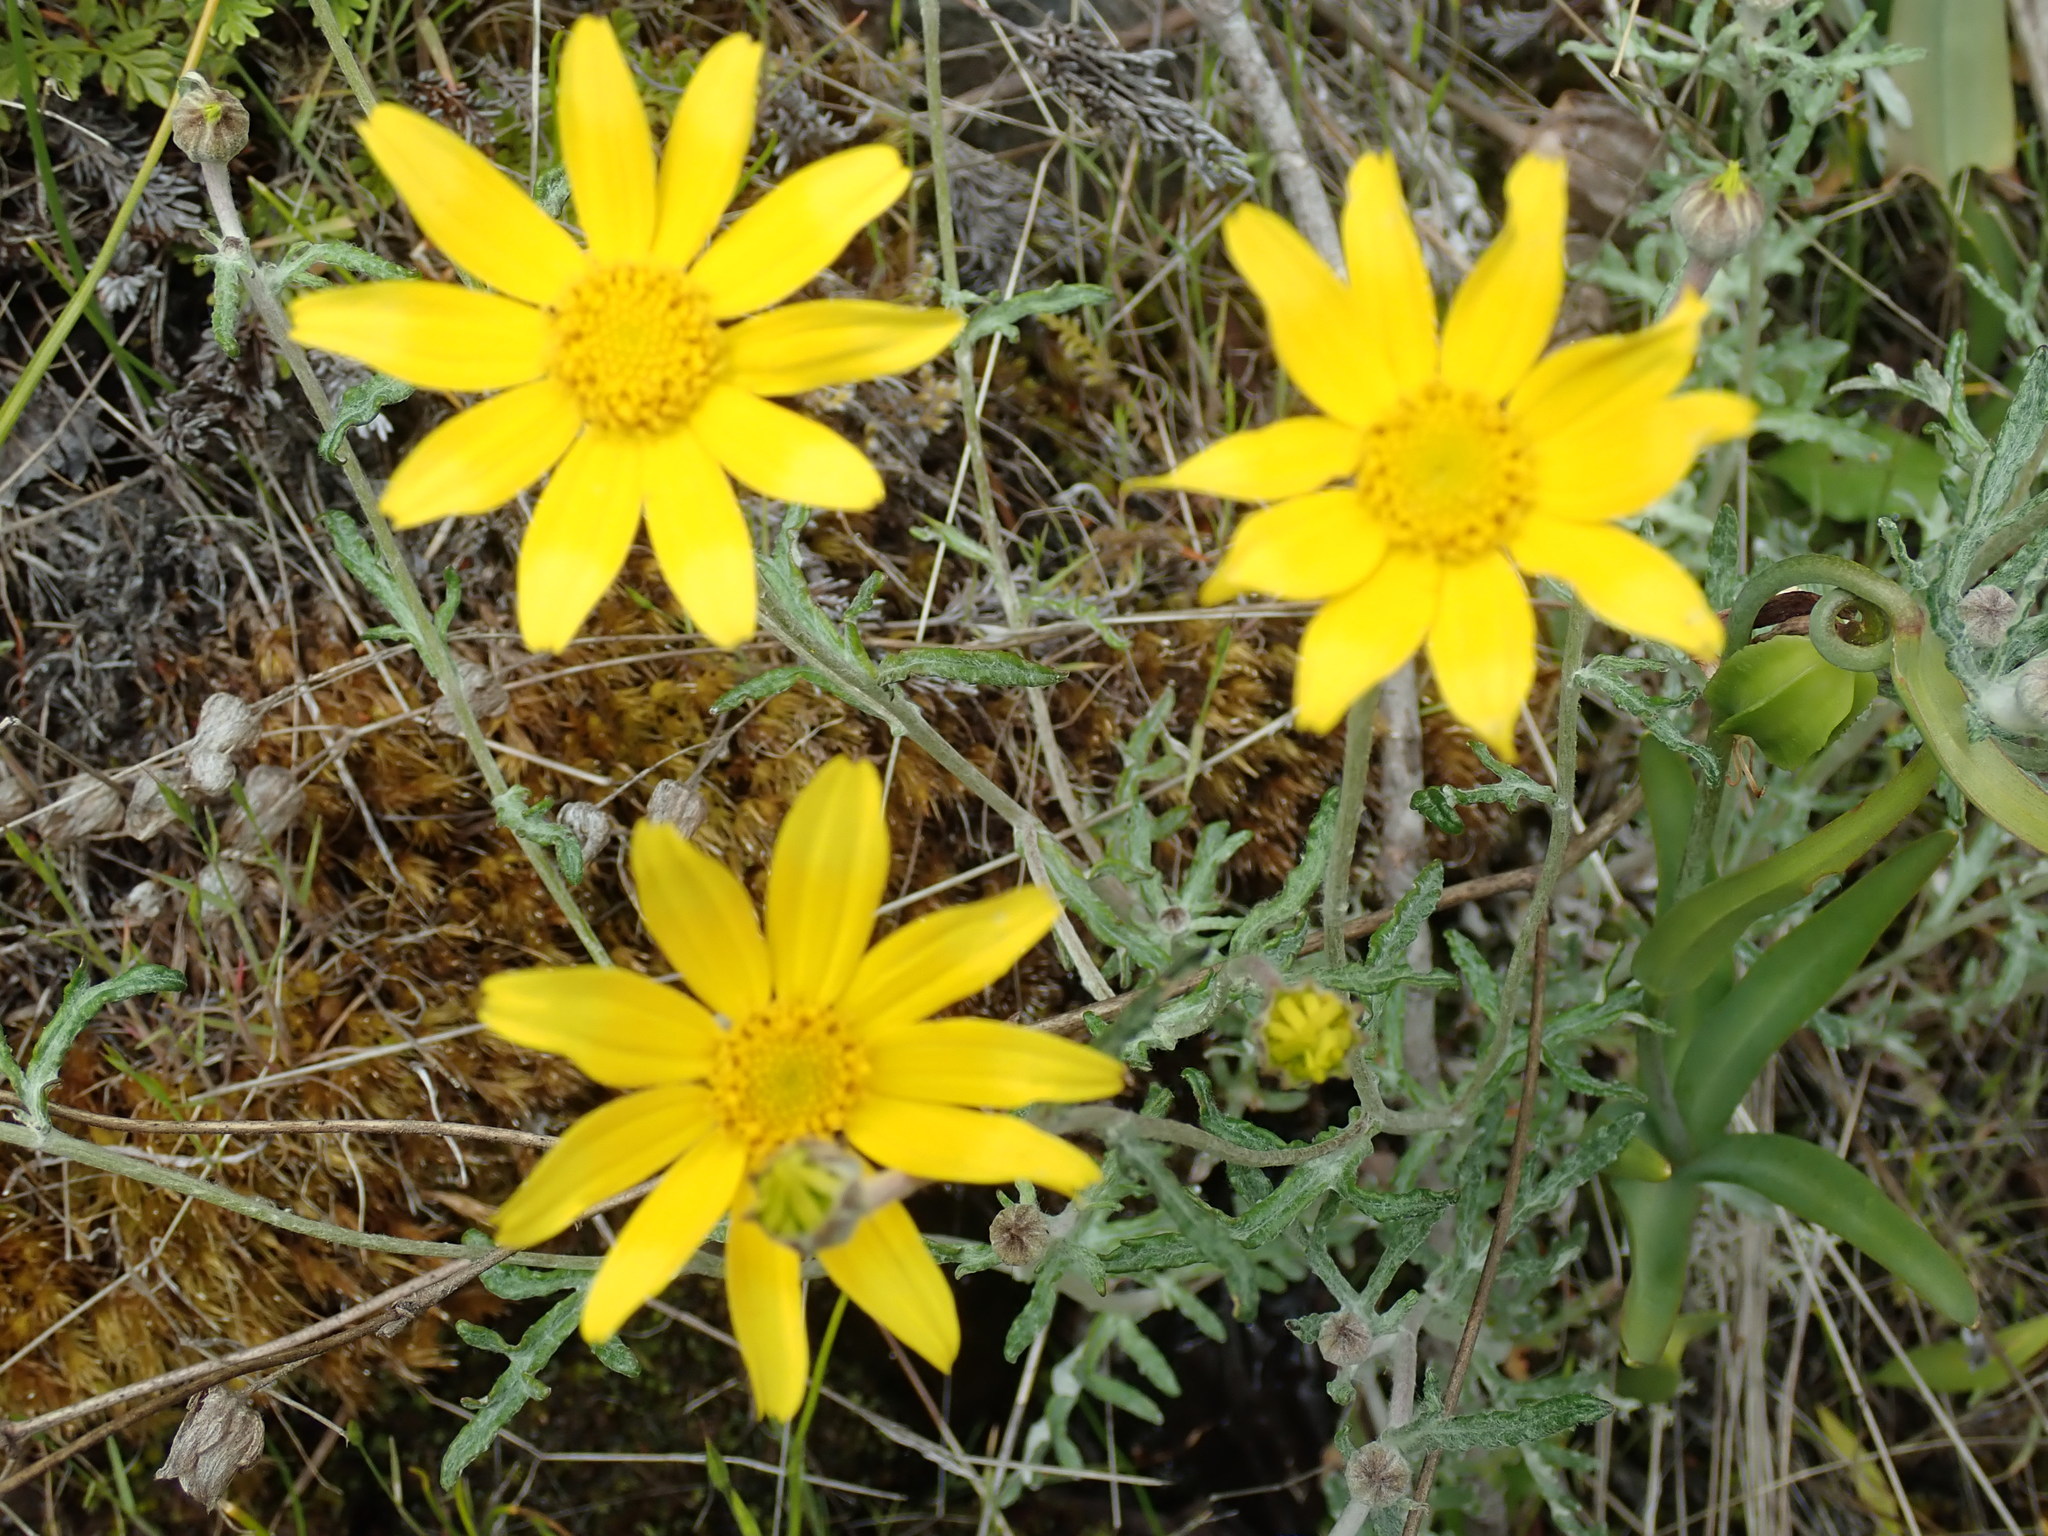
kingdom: Plantae
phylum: Tracheophyta
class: Magnoliopsida
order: Asterales
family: Asteraceae
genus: Eriophyllum
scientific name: Eriophyllum lanatum
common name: Common woolly-sunflower
